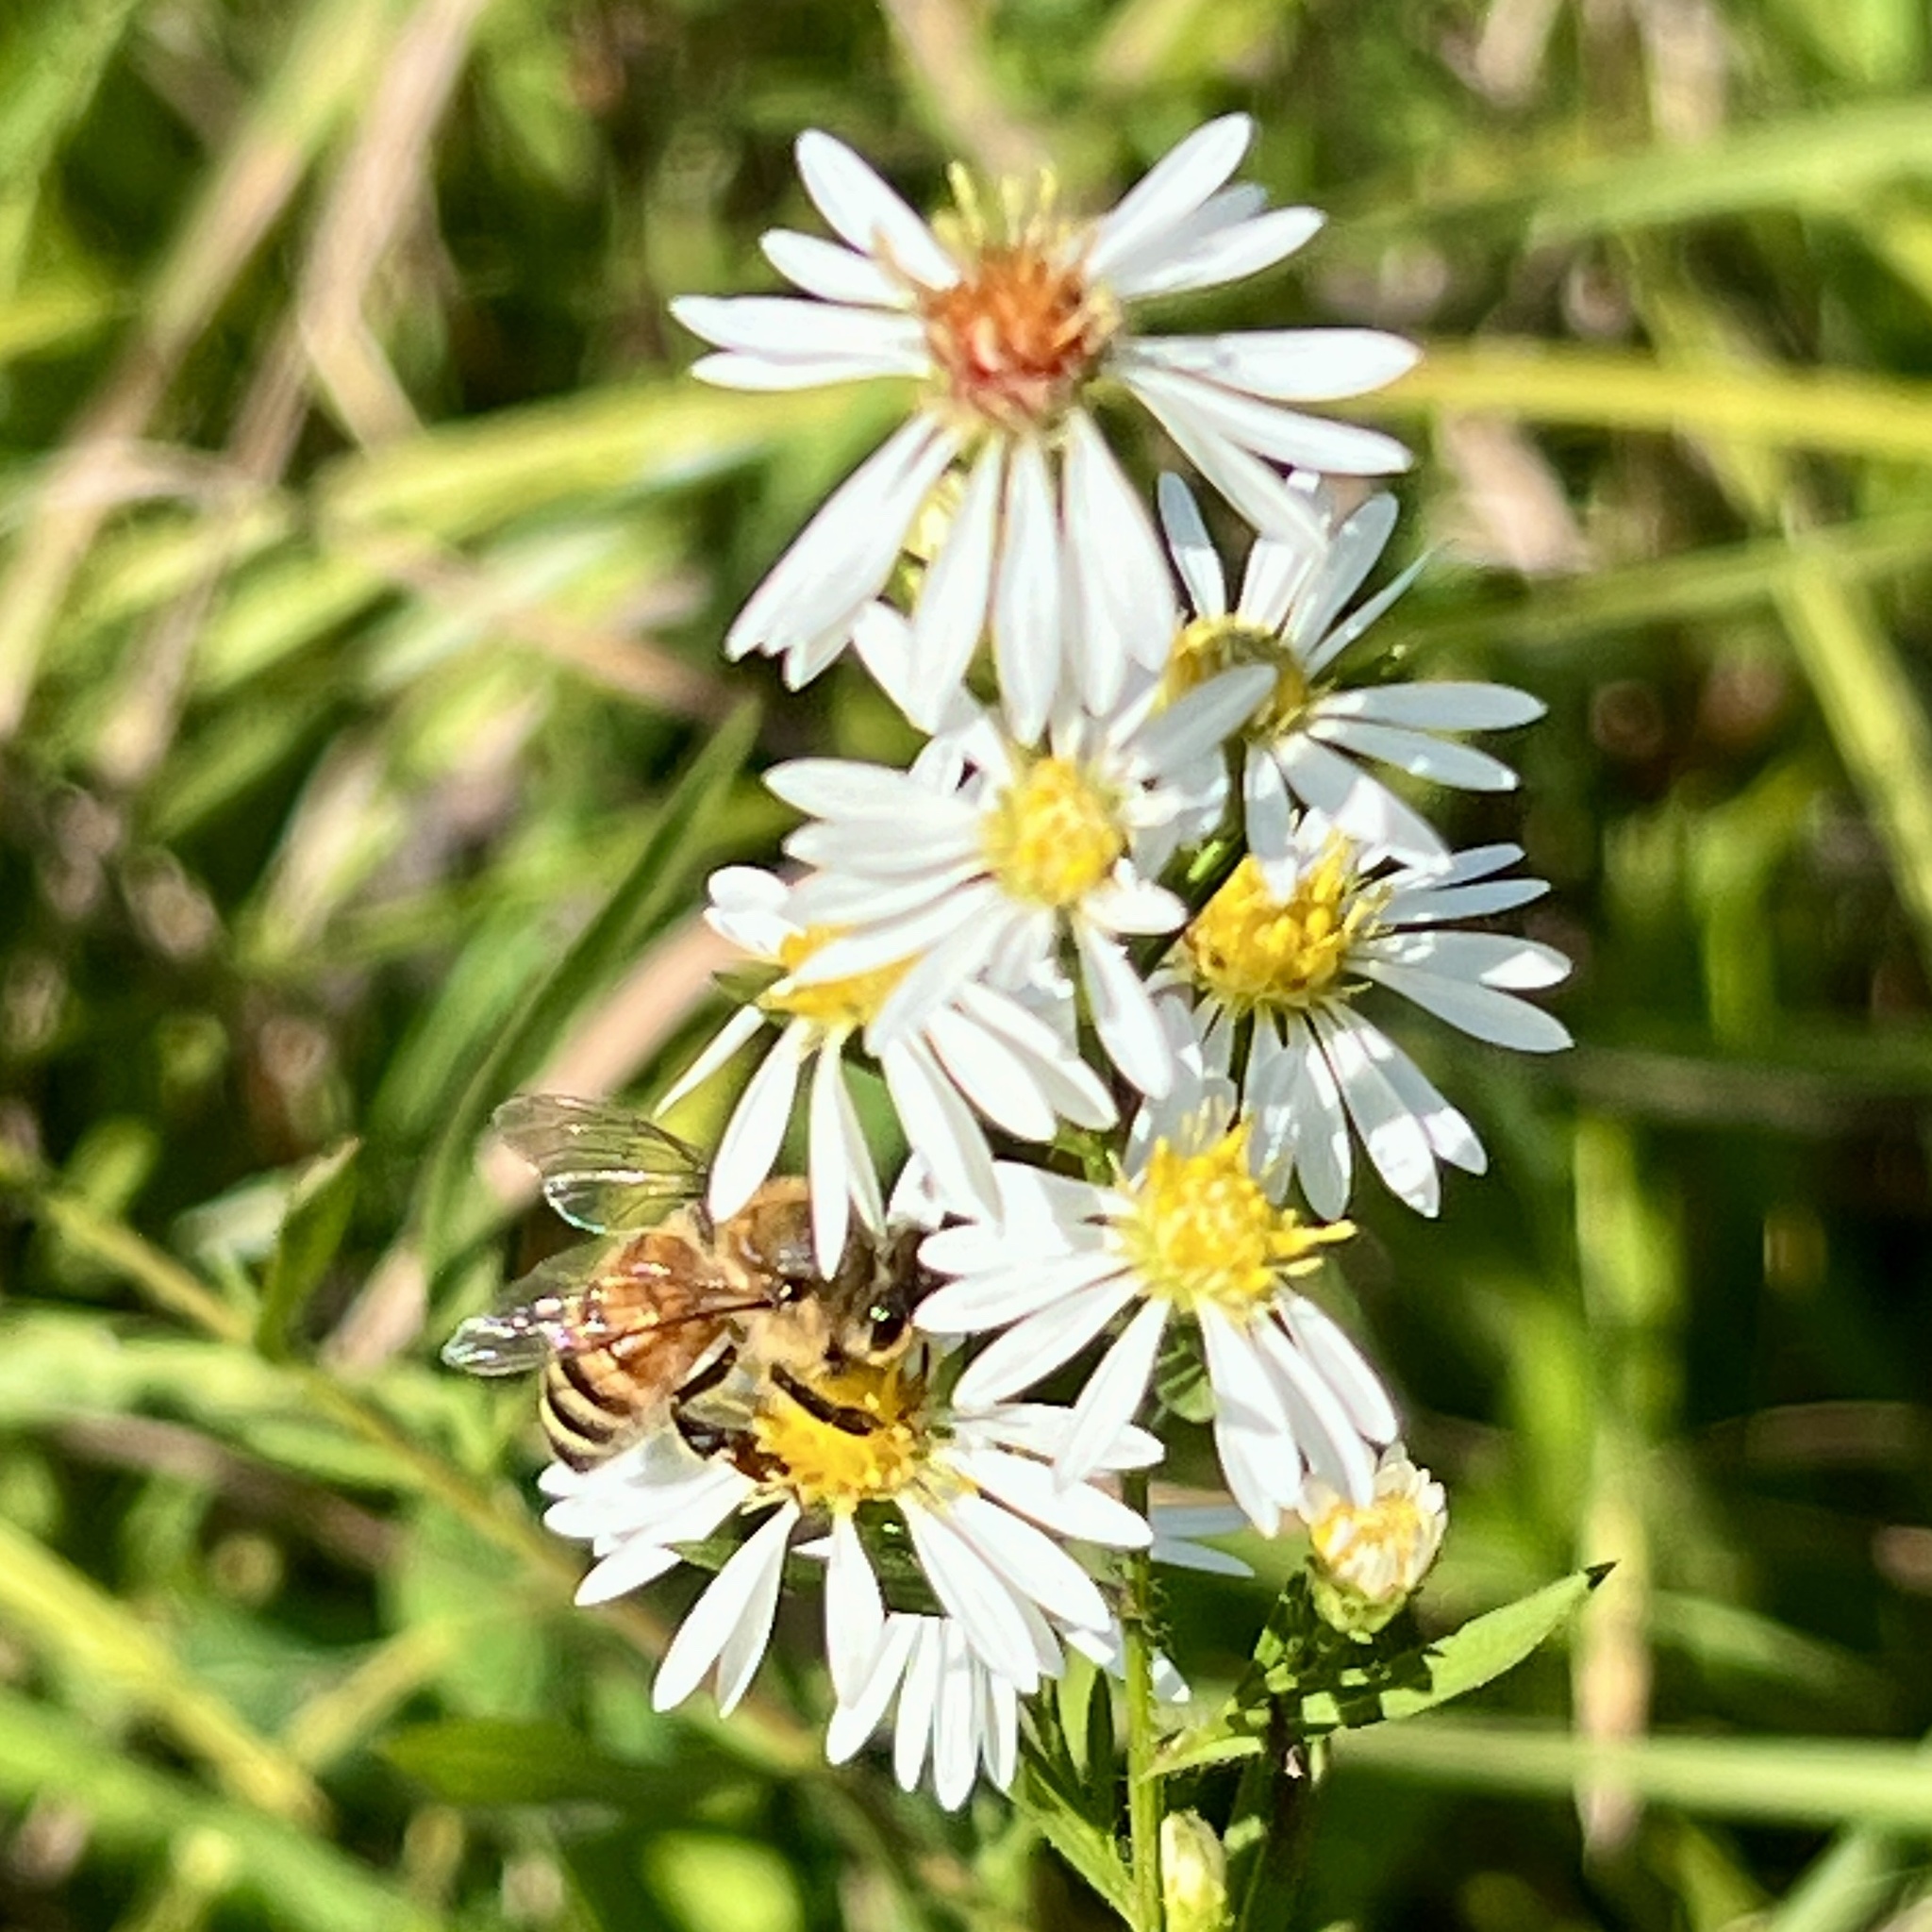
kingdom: Animalia
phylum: Arthropoda
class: Insecta
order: Hymenoptera
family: Apidae
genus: Apis
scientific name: Apis mellifera
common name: Honey bee
